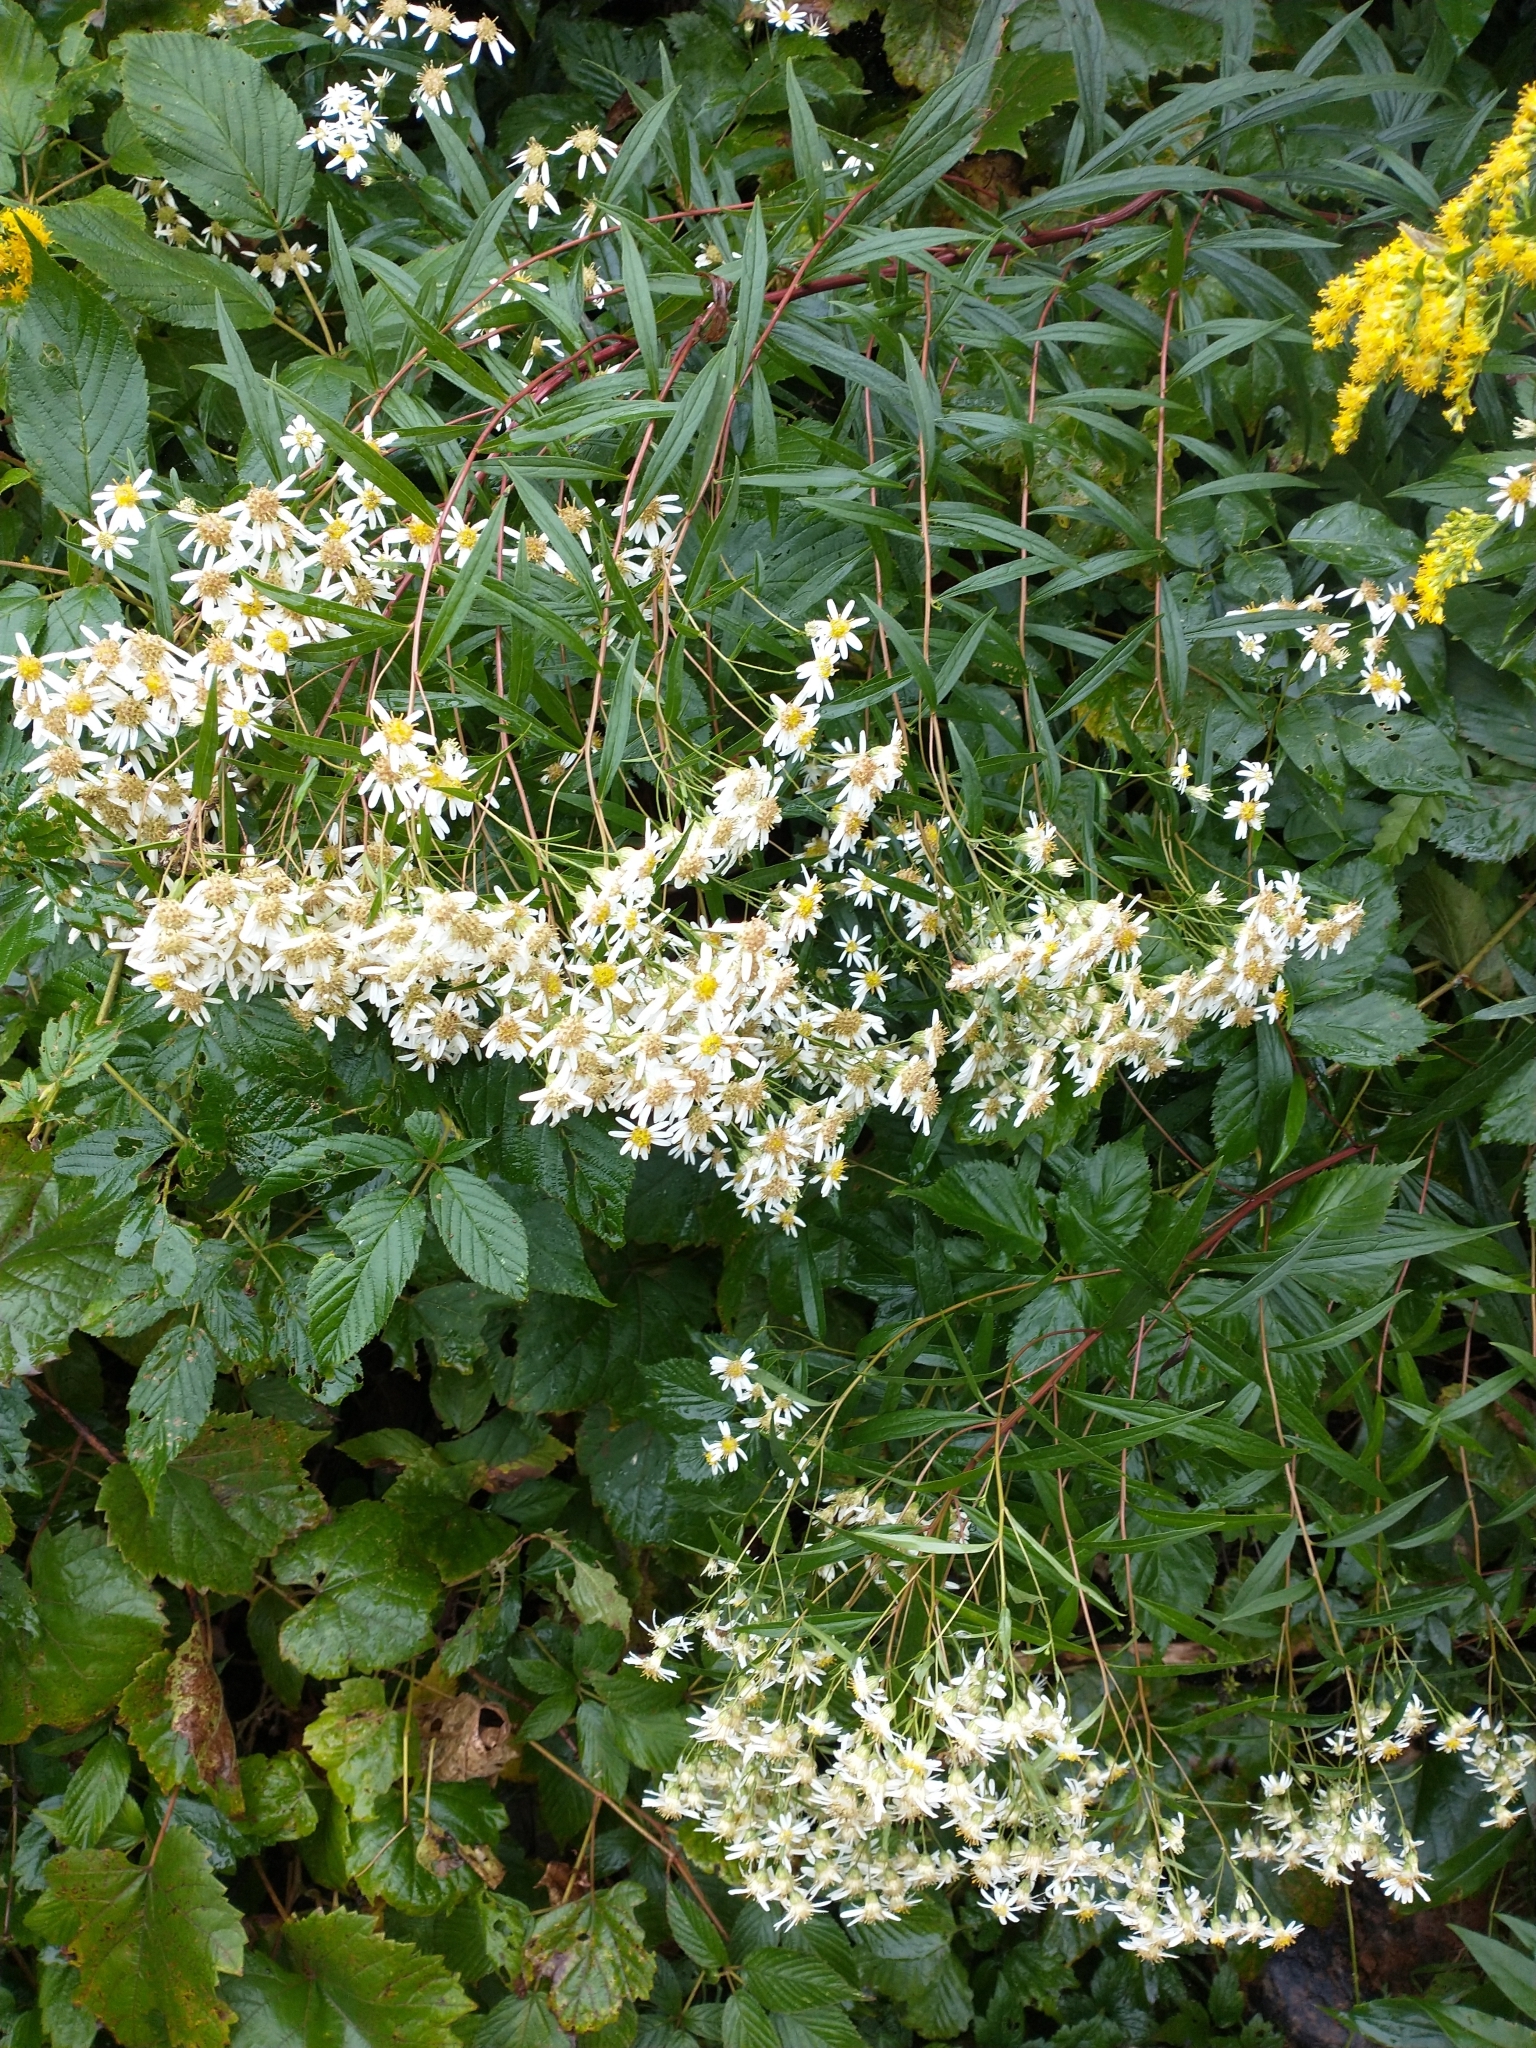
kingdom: Plantae
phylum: Tracheophyta
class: Magnoliopsida
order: Asterales
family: Asteraceae
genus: Doellingeria
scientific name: Doellingeria umbellata
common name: Flat-top white aster
